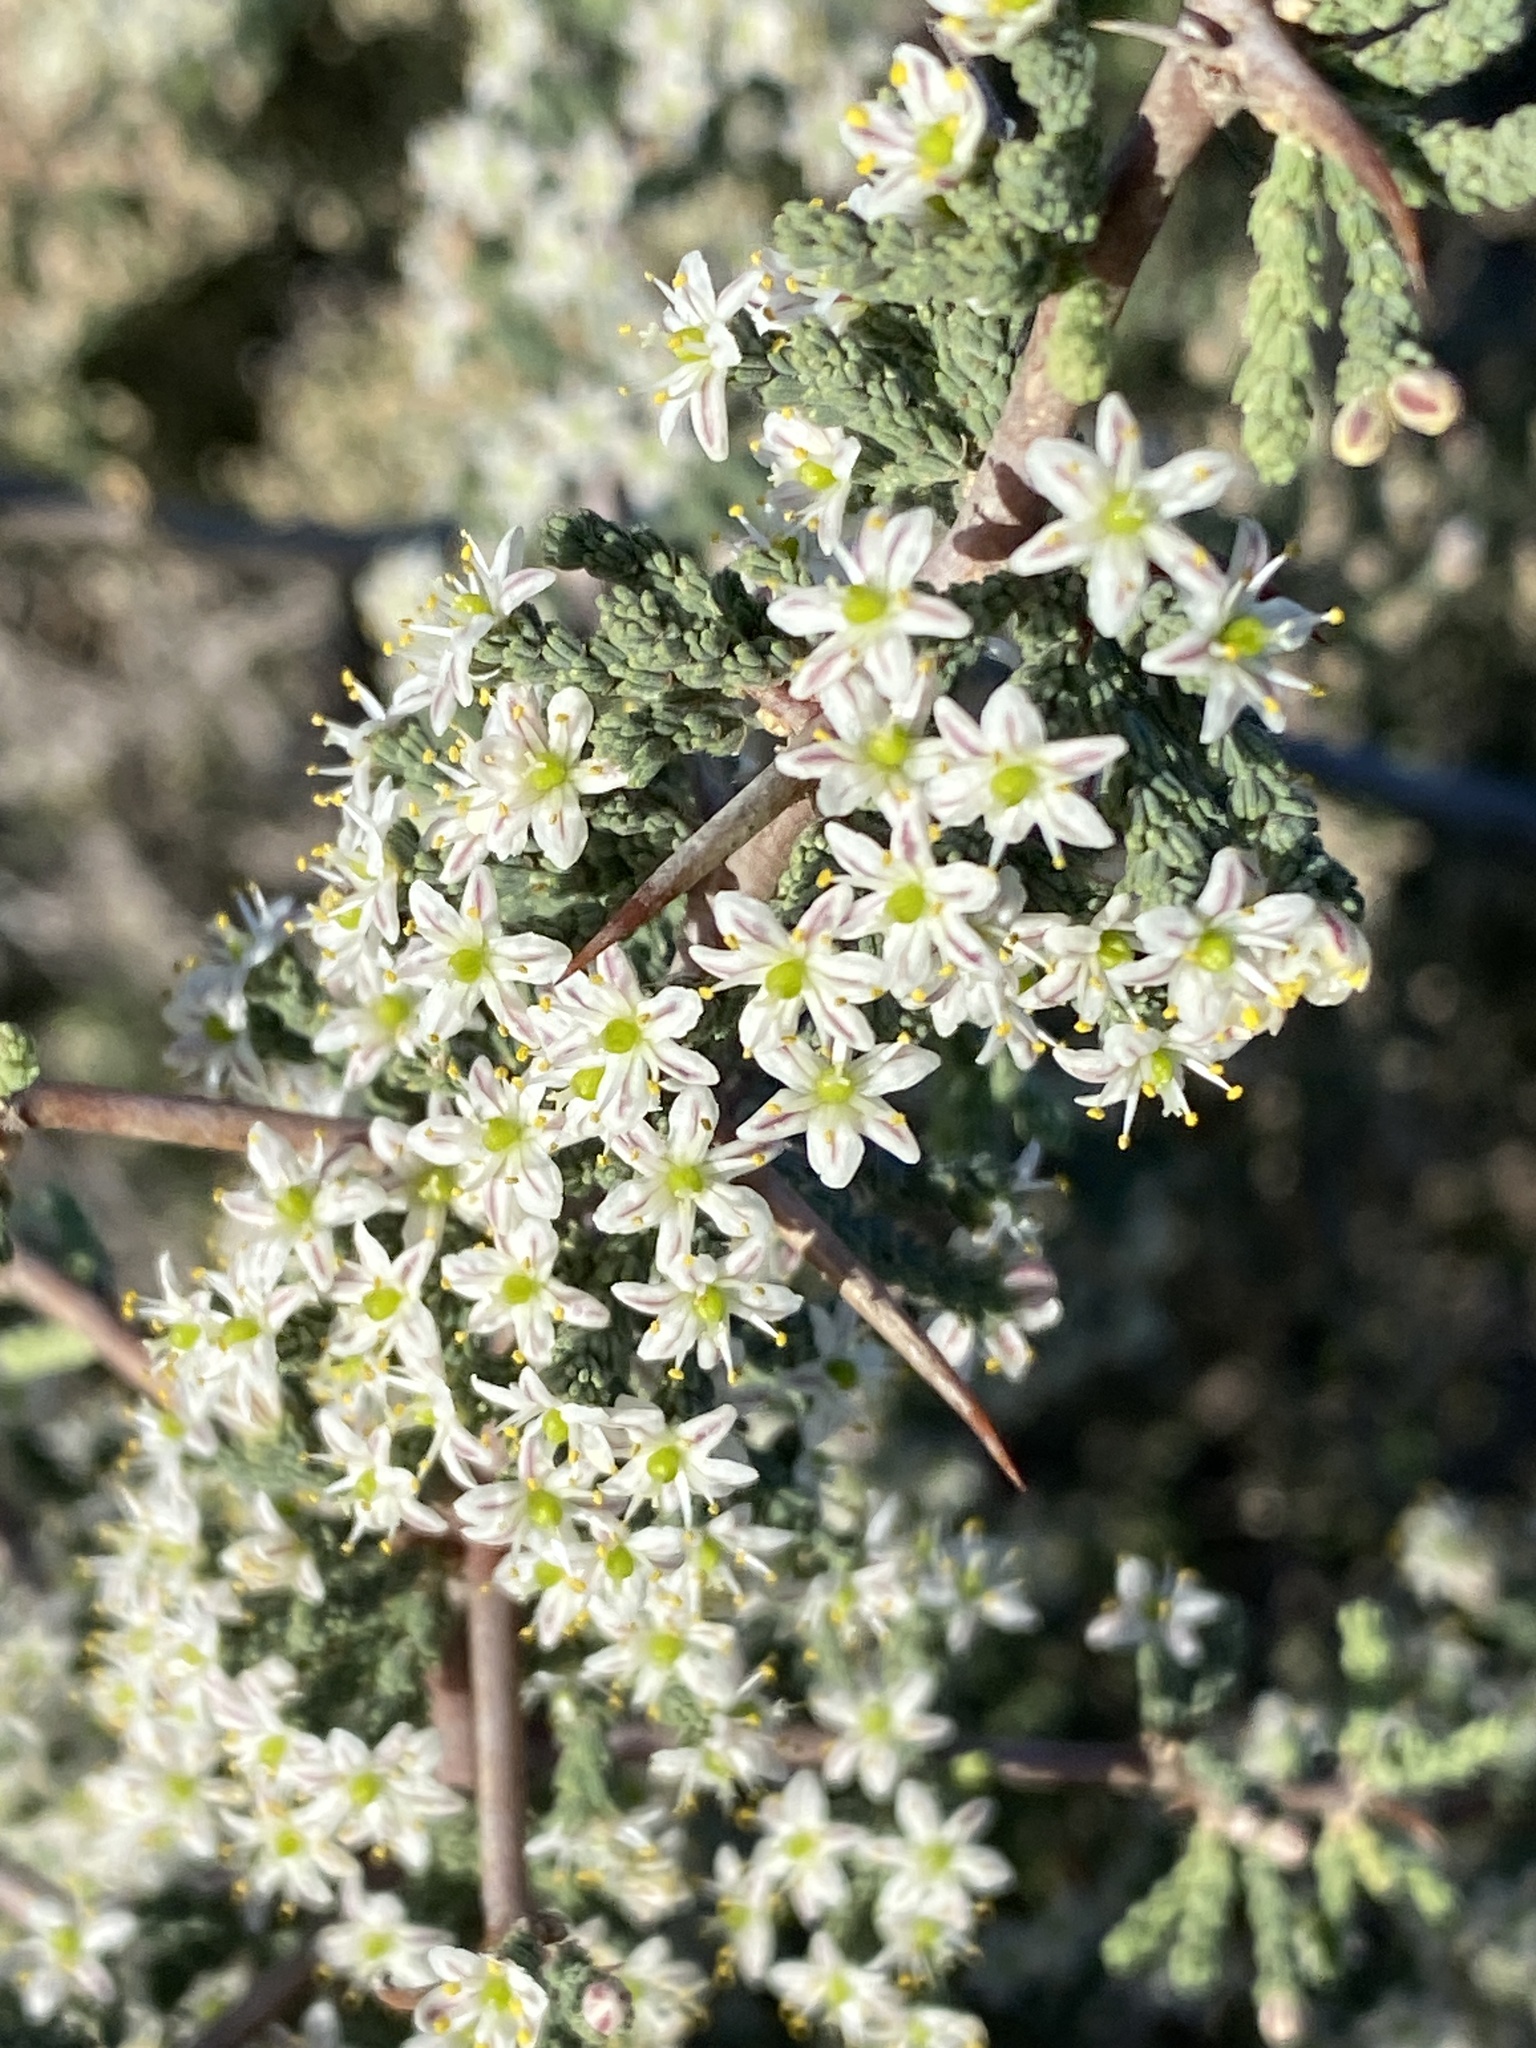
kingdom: Plantae
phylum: Tracheophyta
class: Liliopsida
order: Asparagales
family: Asparagaceae
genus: Asparagus
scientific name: Asparagus capensis
